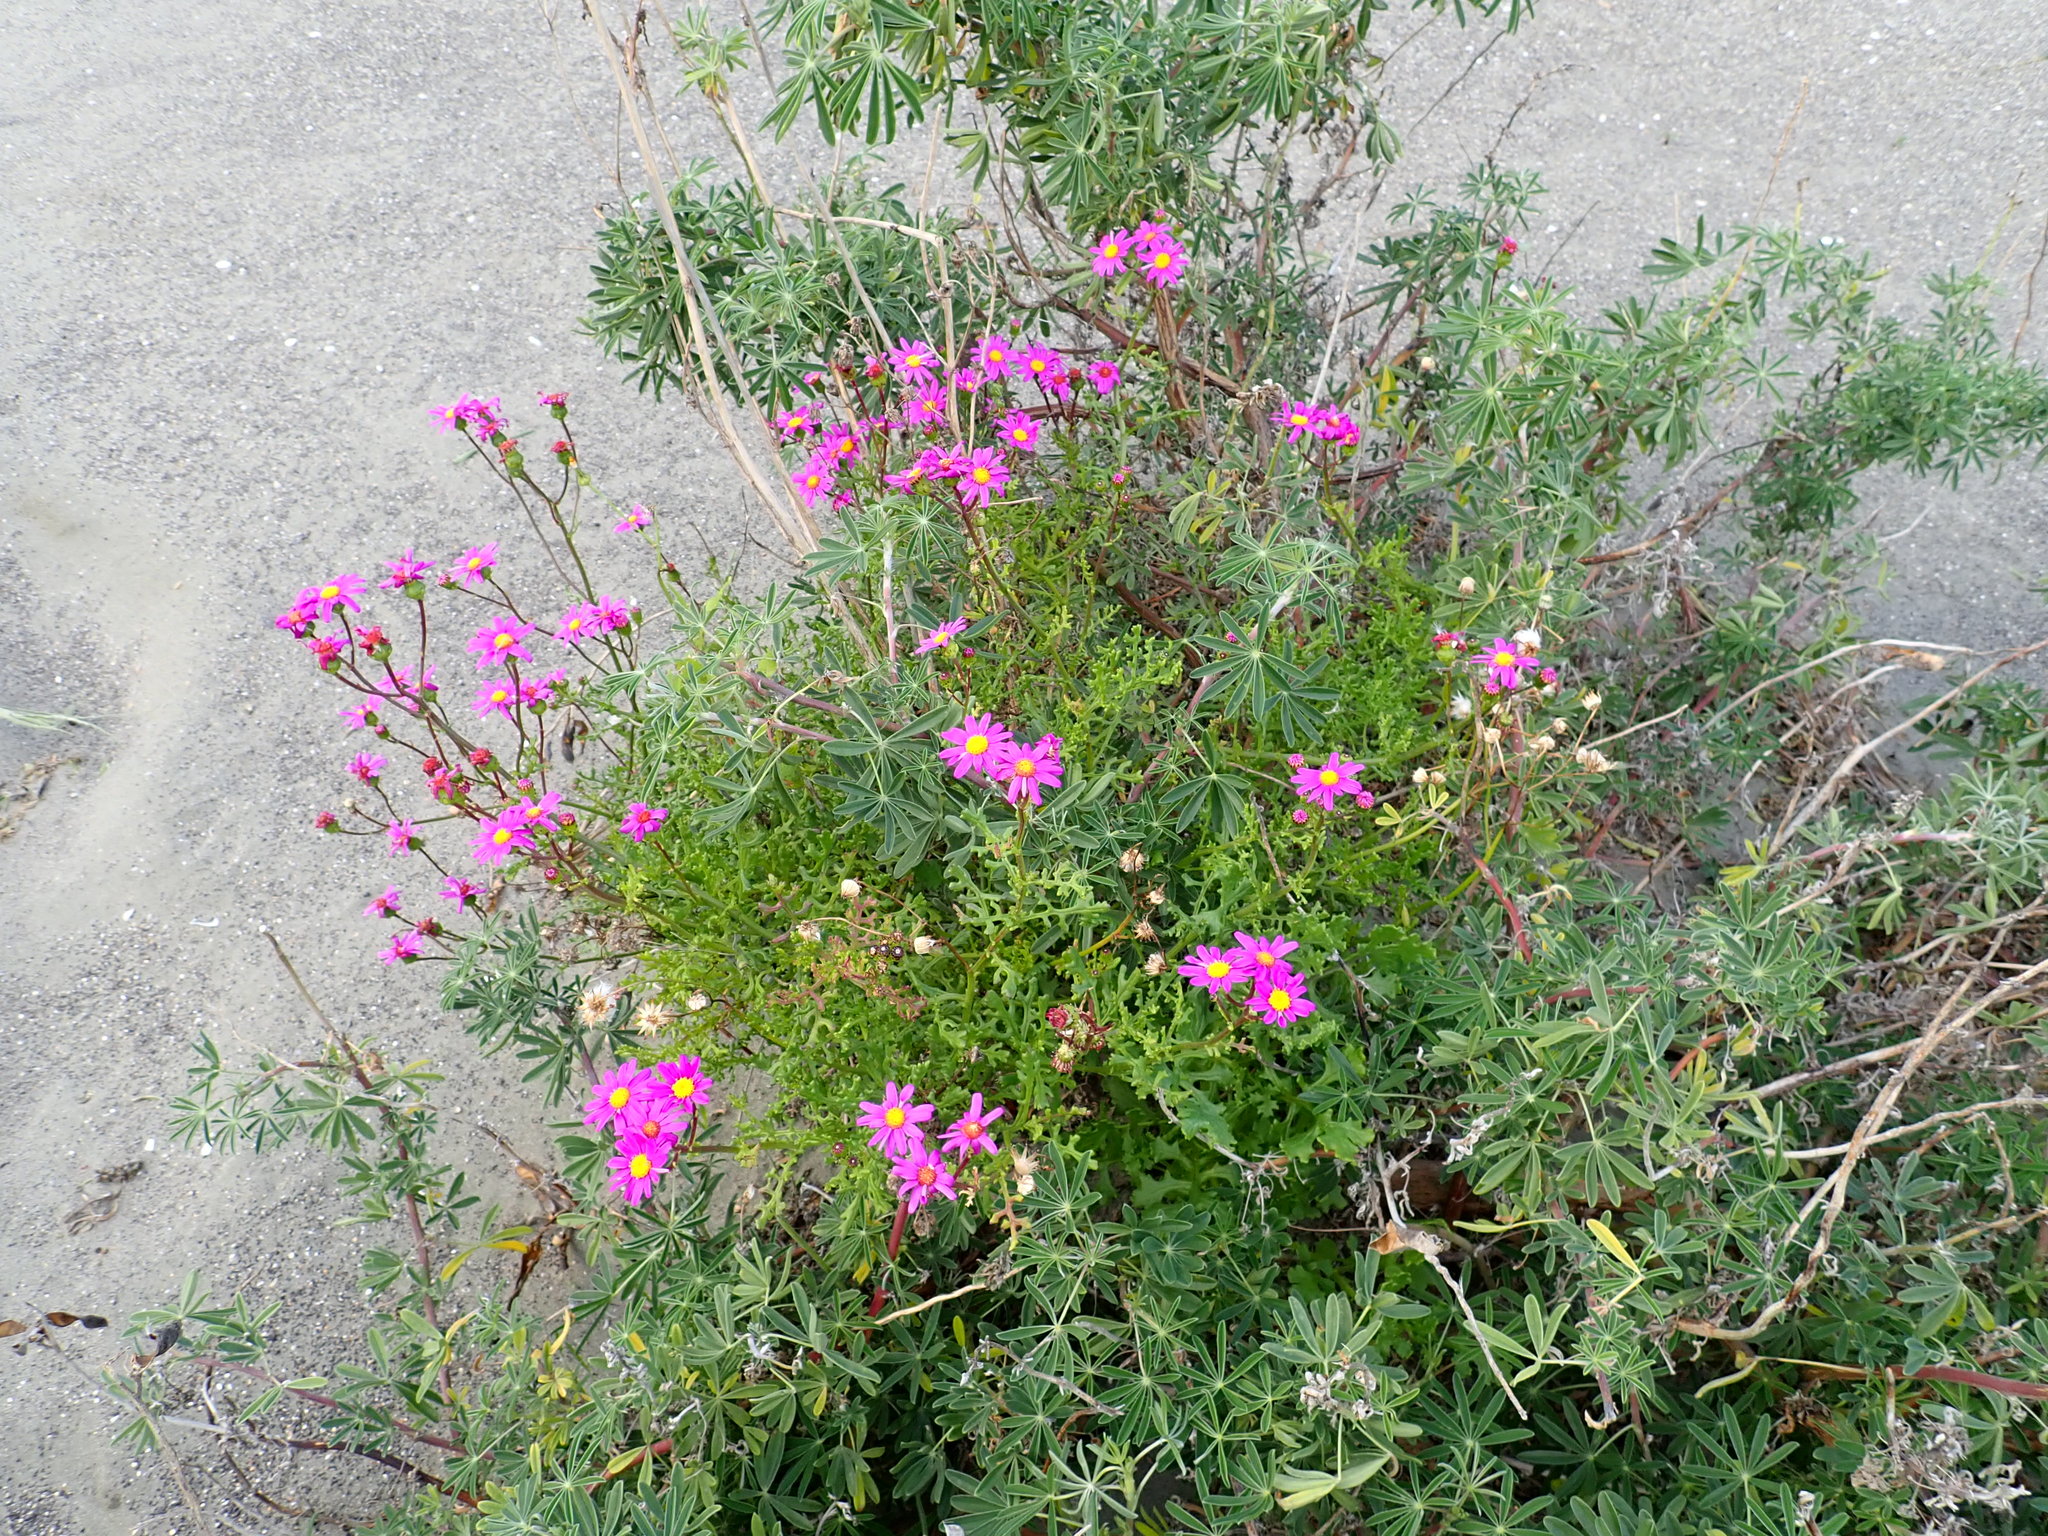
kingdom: Plantae
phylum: Tracheophyta
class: Magnoliopsida
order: Asterales
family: Asteraceae
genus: Senecio
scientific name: Senecio elegans
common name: Purple groundsel
